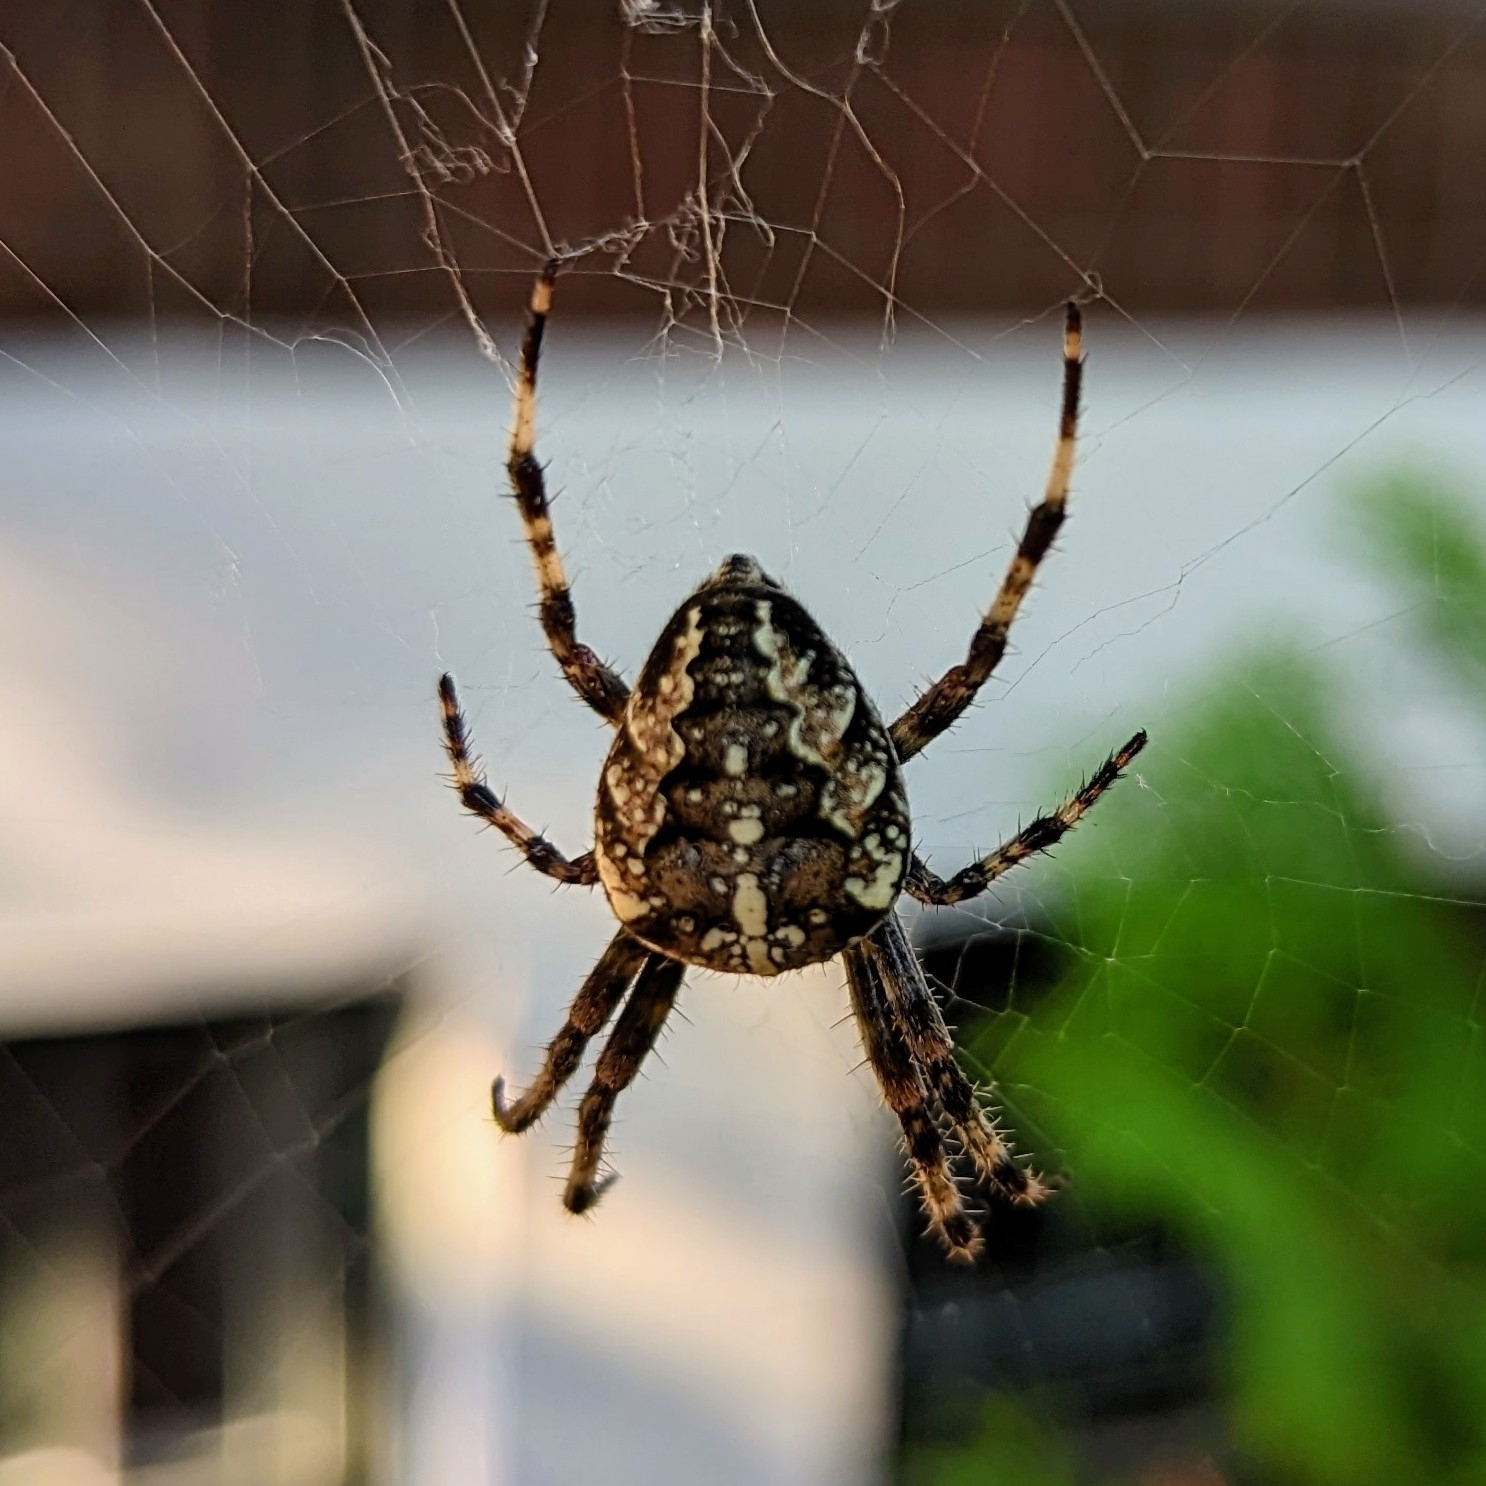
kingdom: Animalia
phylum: Arthropoda
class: Arachnida
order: Araneae
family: Araneidae
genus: Araneus
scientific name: Araneus diadematus
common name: Cross orbweaver
